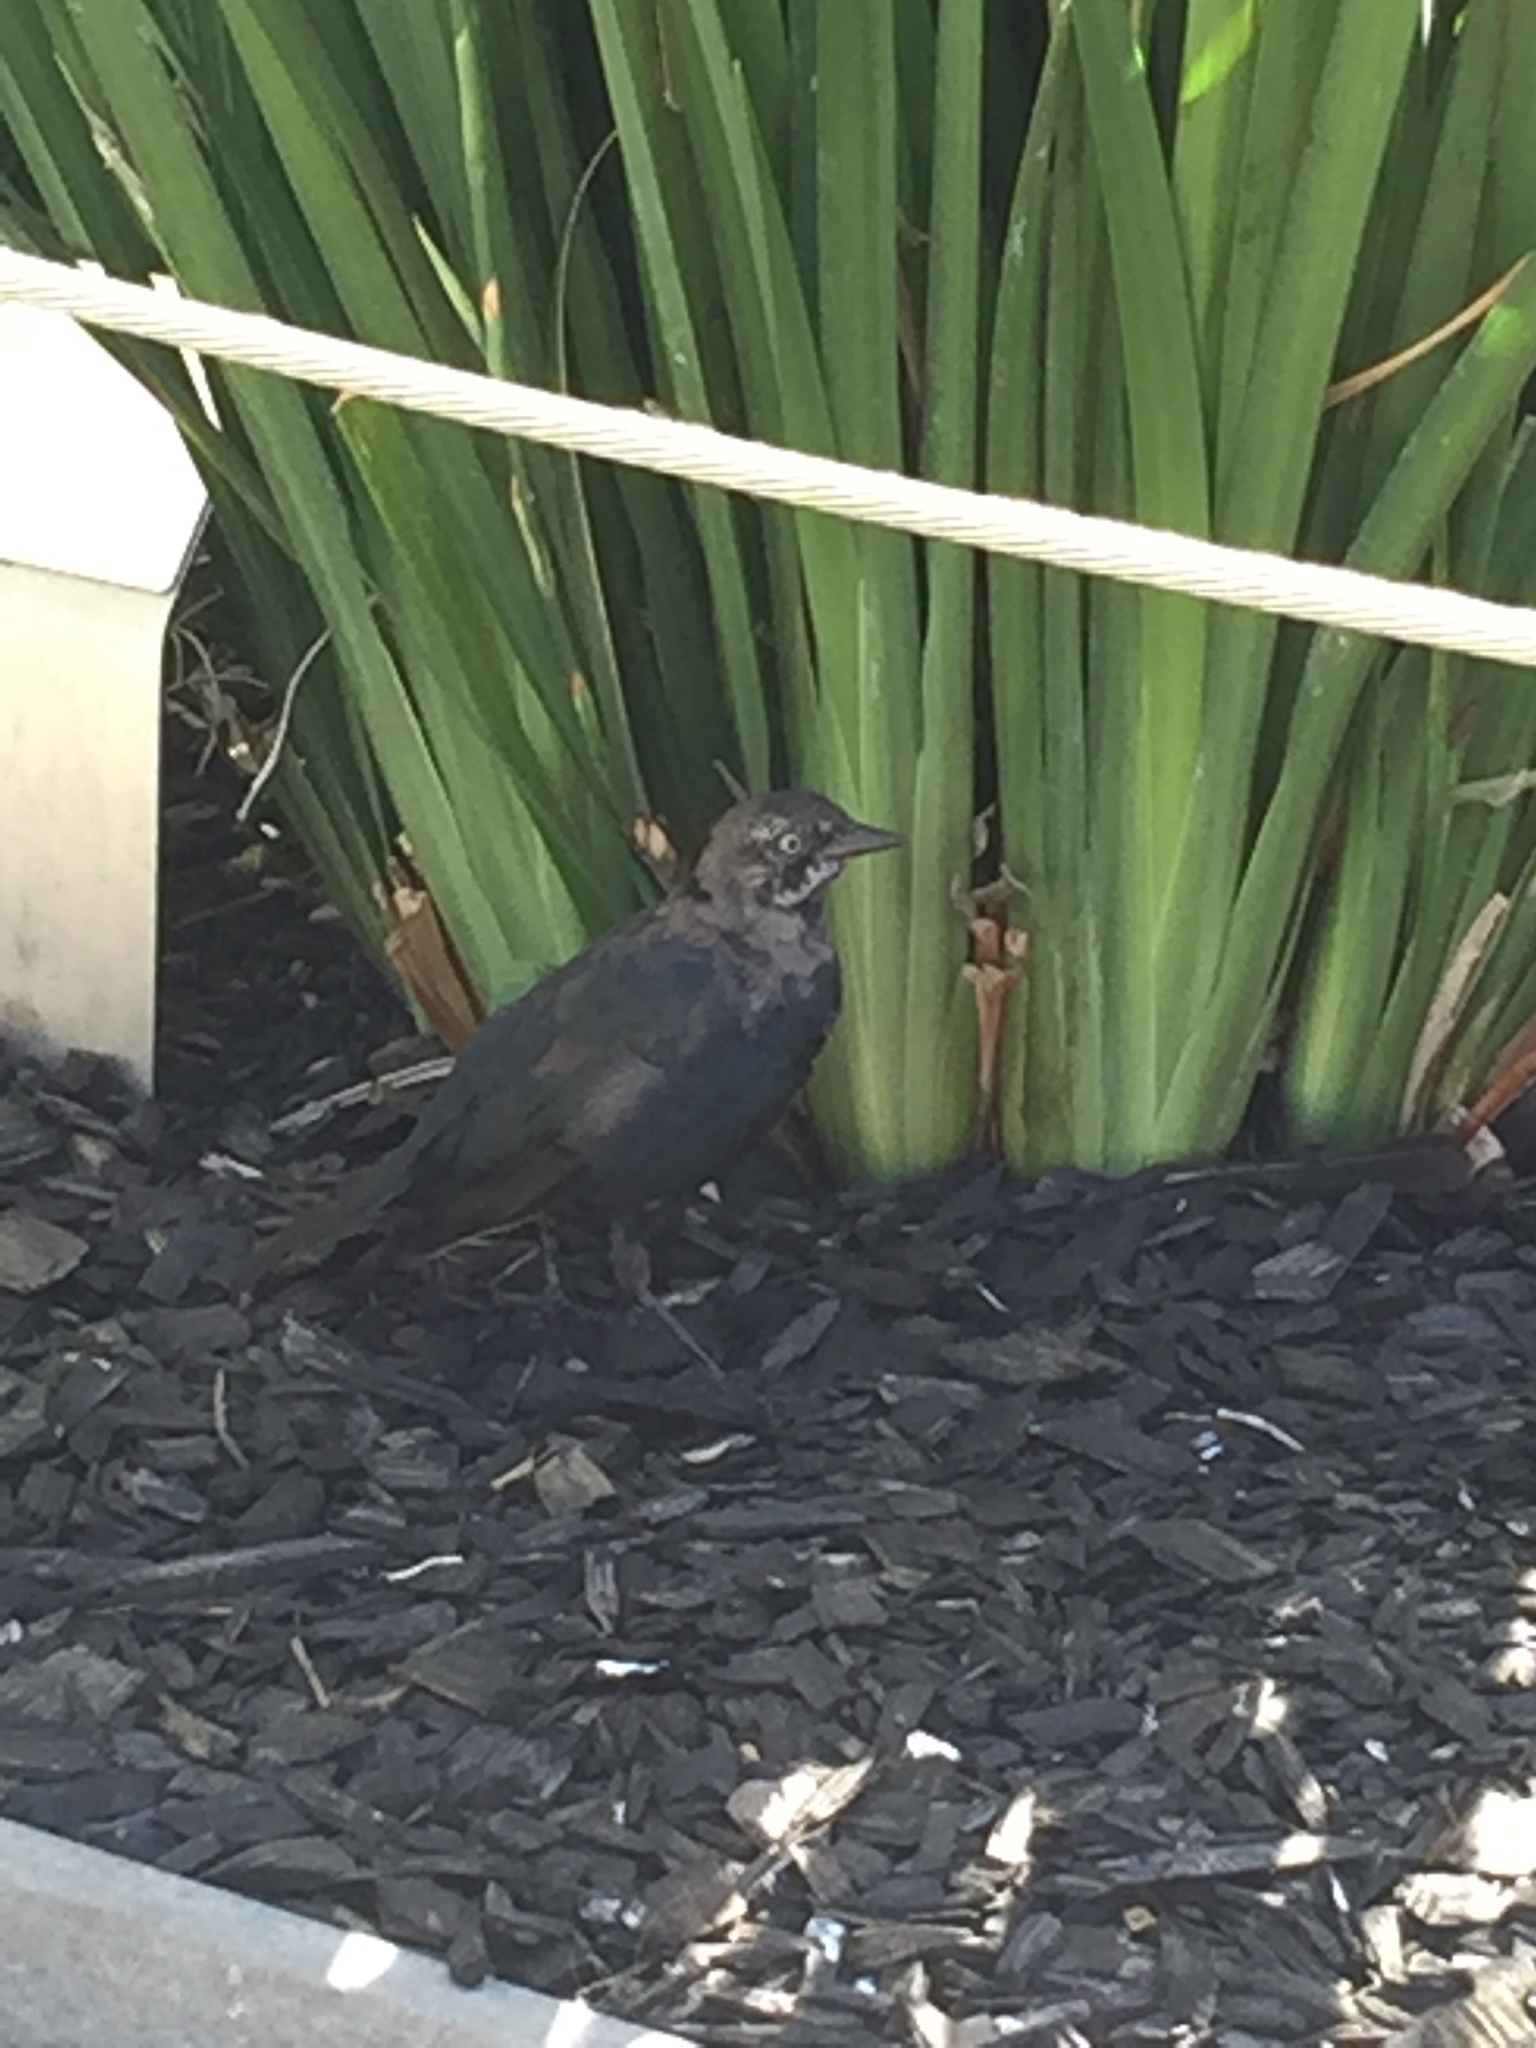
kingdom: Animalia
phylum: Chordata
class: Aves
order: Passeriformes
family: Icteridae
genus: Euphagus
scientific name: Euphagus cyanocephalus
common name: Brewer's blackbird
